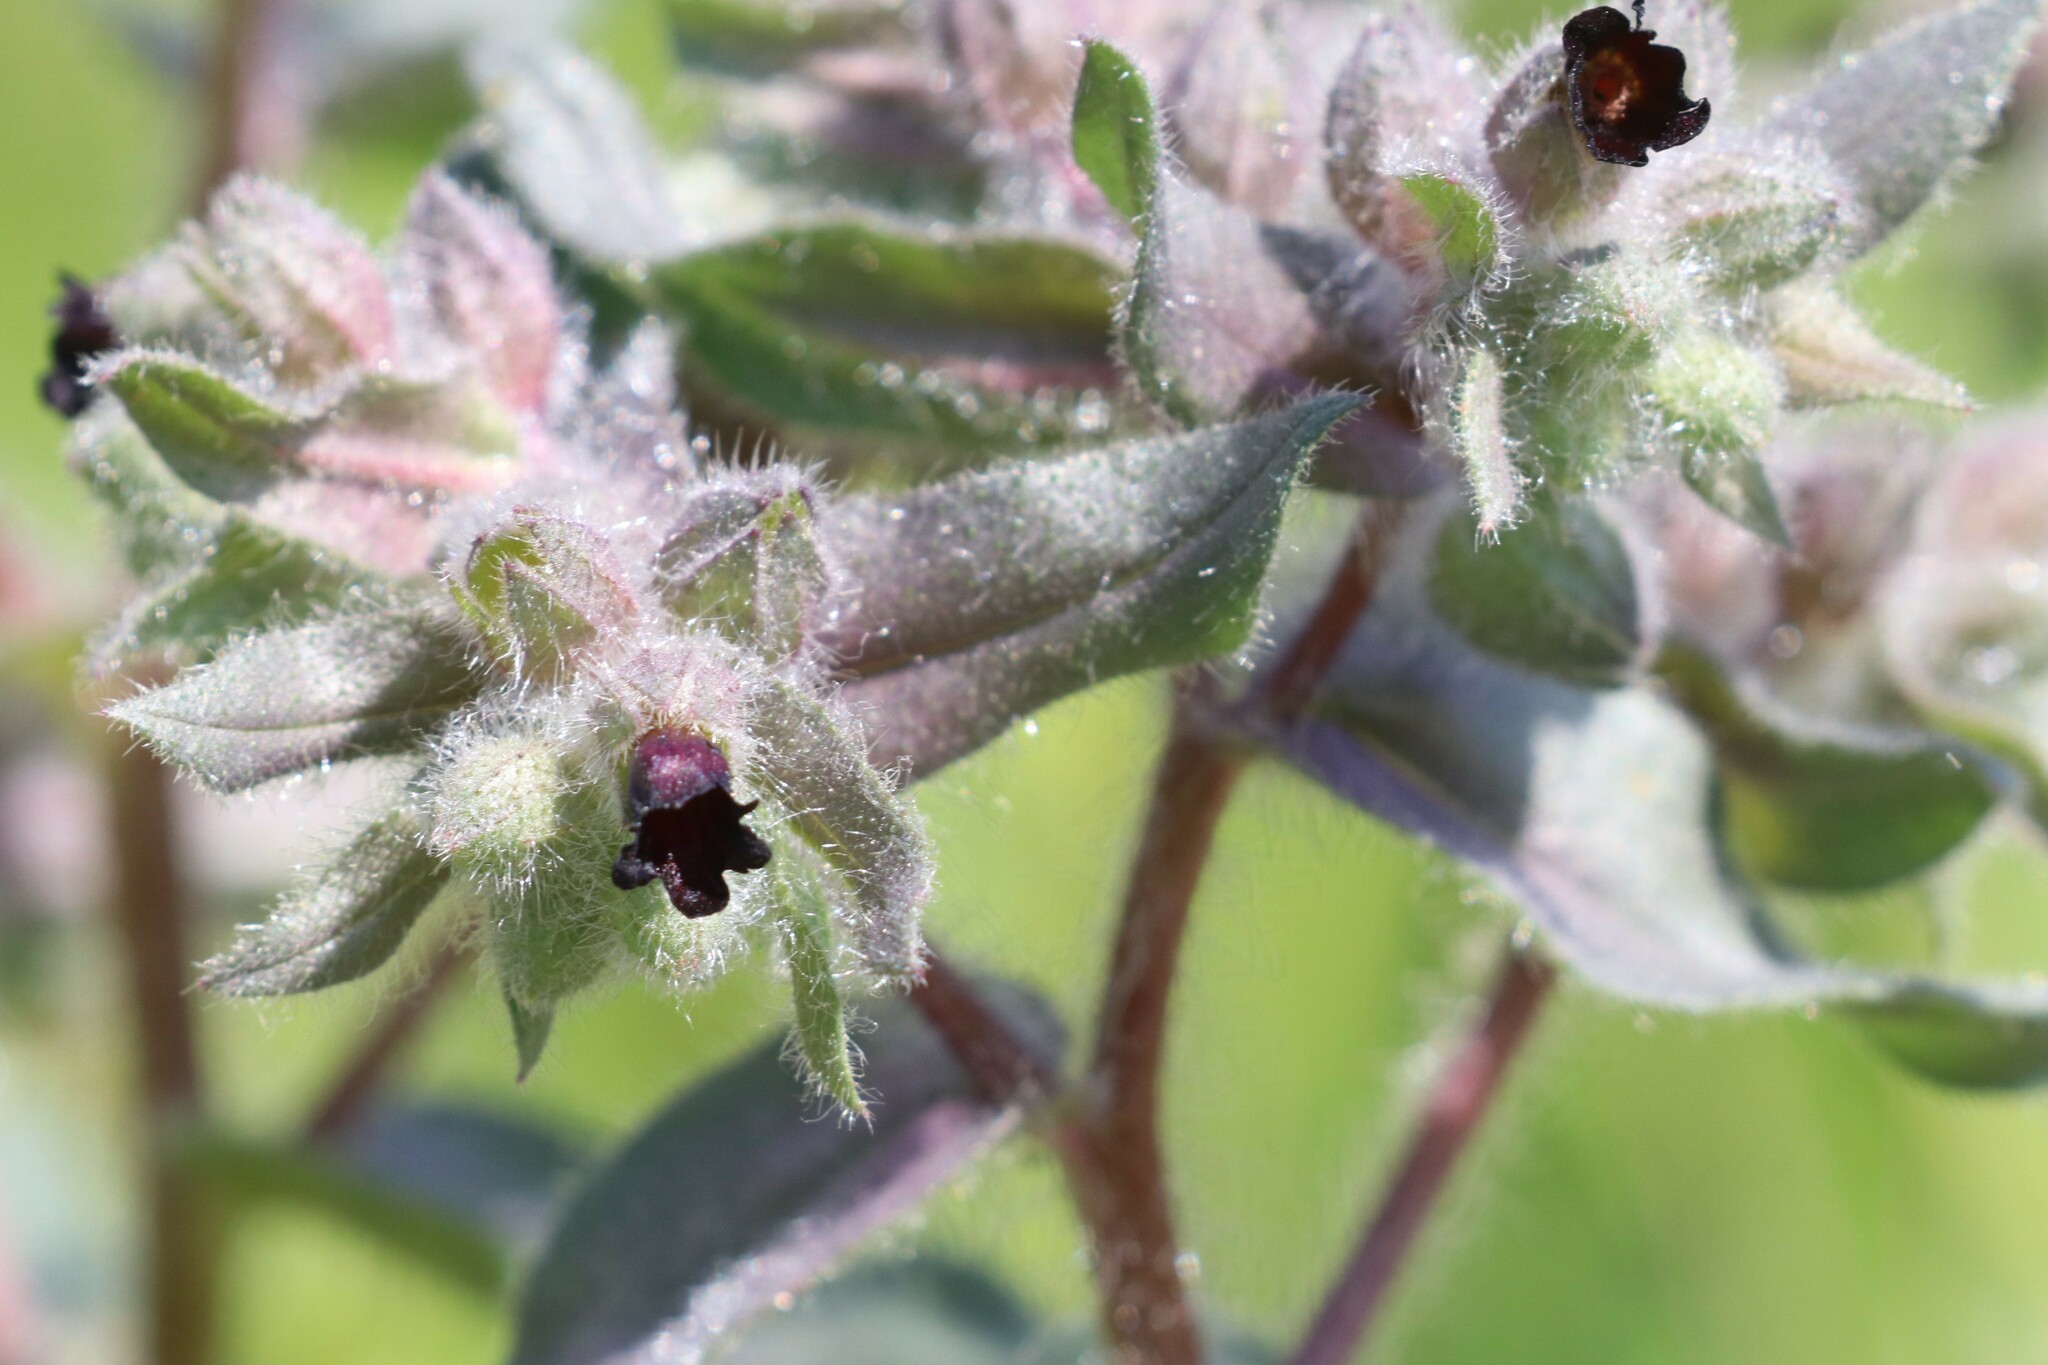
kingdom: Plantae
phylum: Tracheophyta
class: Magnoliopsida
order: Boraginales
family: Boraginaceae
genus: Nonea
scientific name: Nonea pulla
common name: Brown nonea
